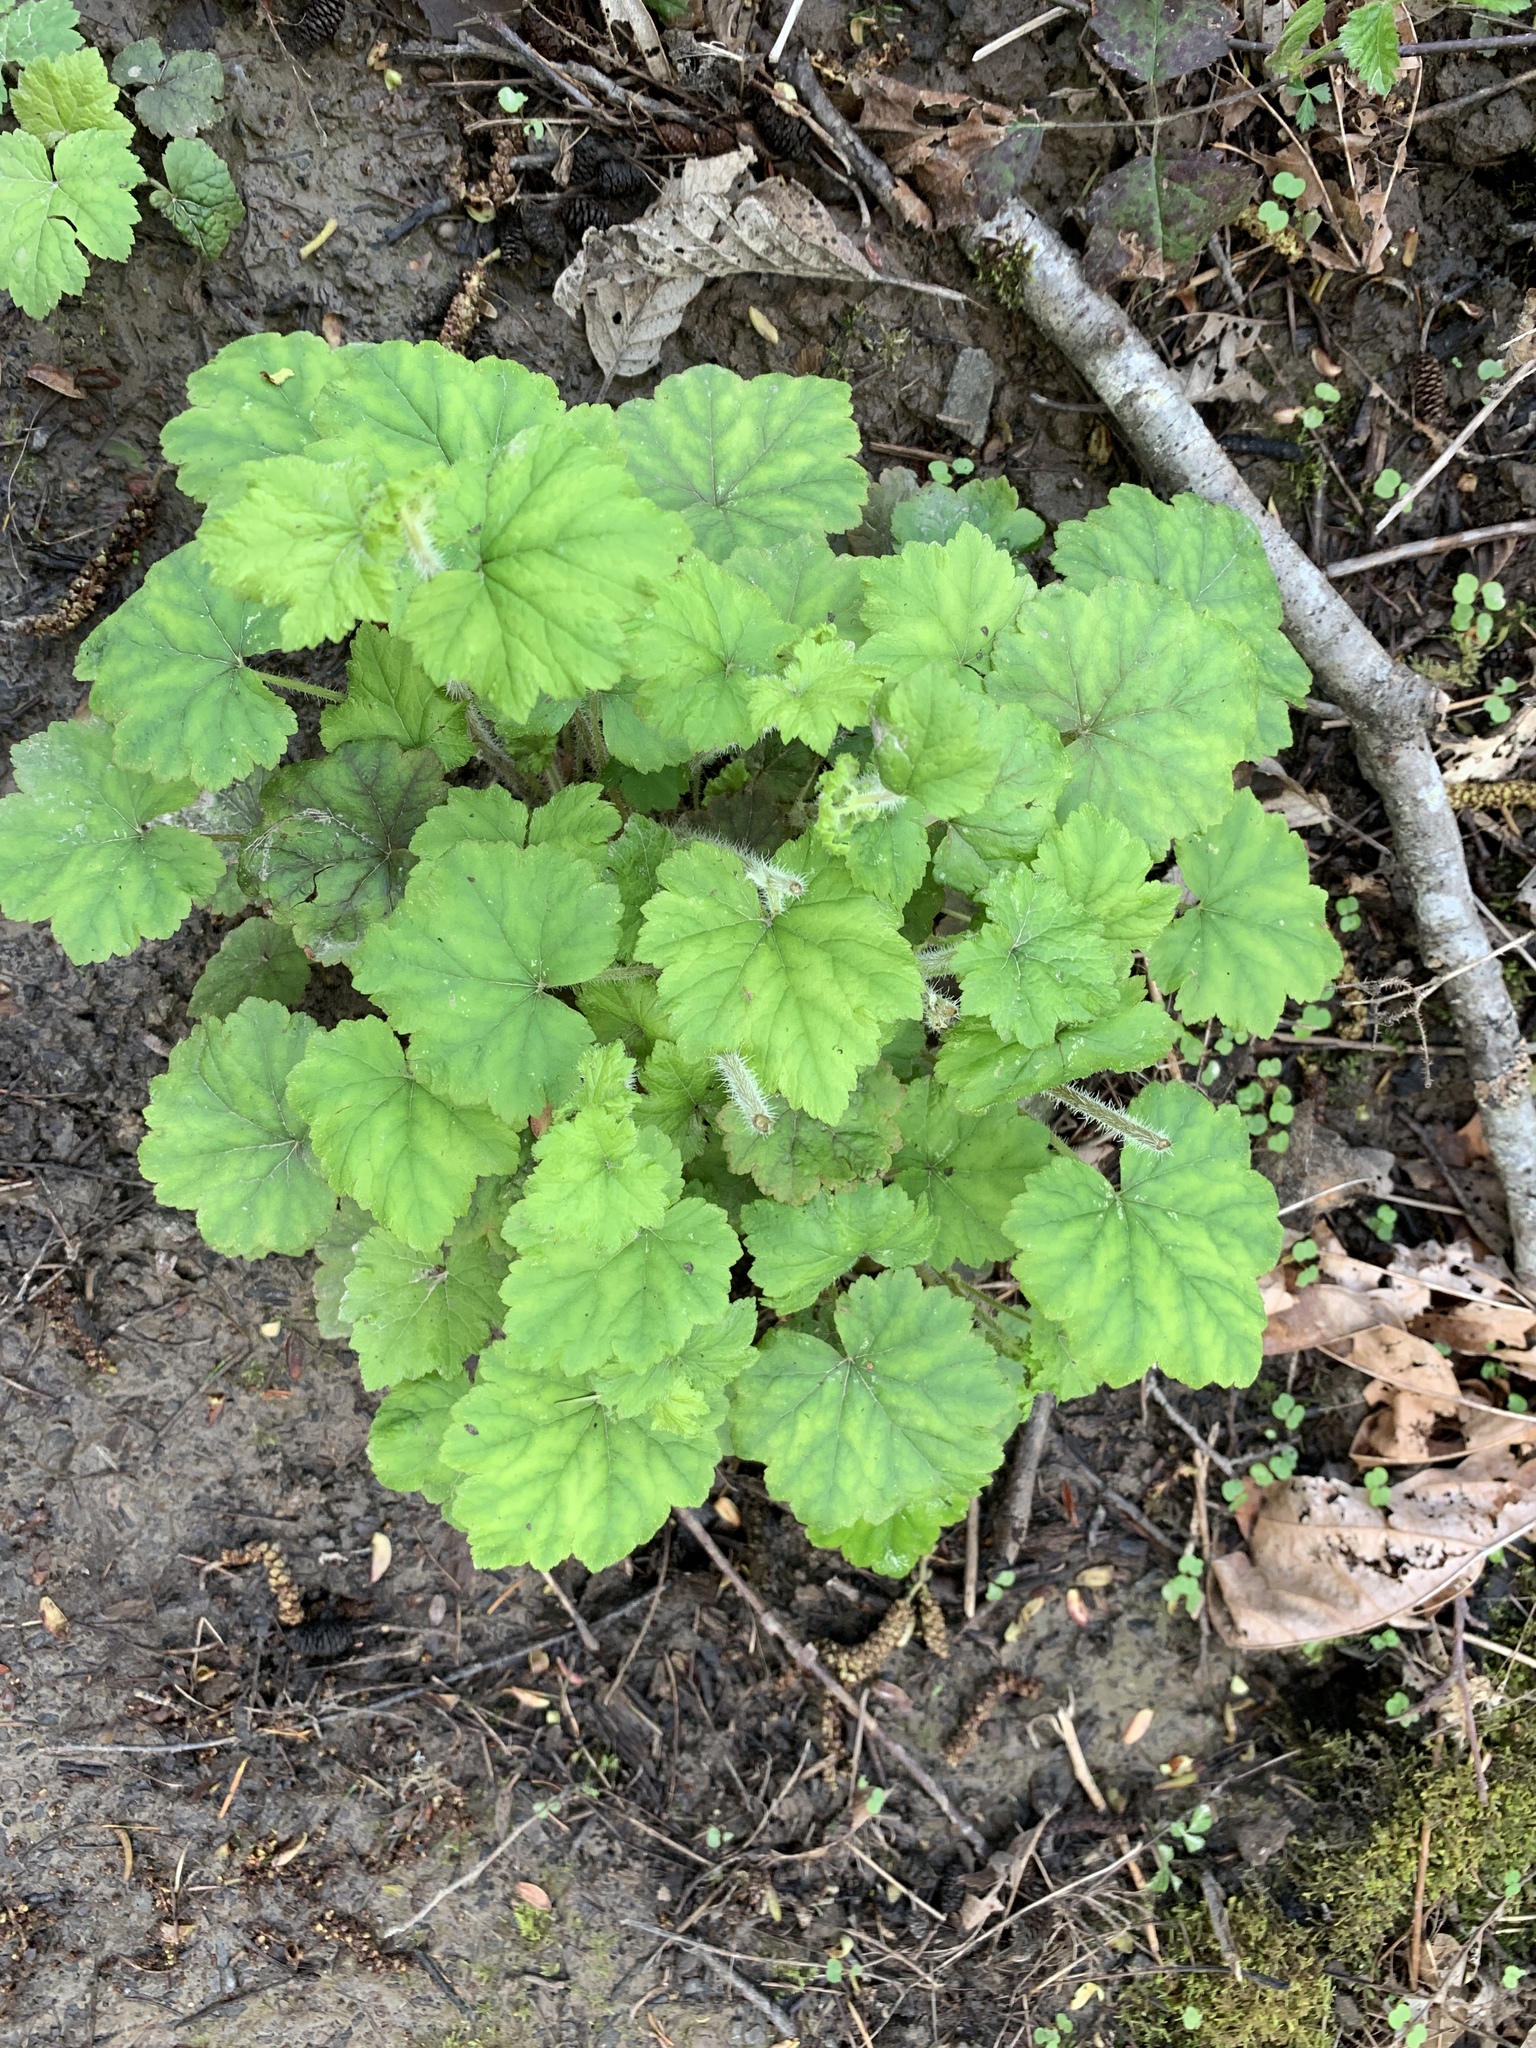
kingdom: Plantae
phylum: Tracheophyta
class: Magnoliopsida
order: Saxifragales
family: Saxifragaceae
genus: Tellima
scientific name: Tellima grandiflora
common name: Fringecups
